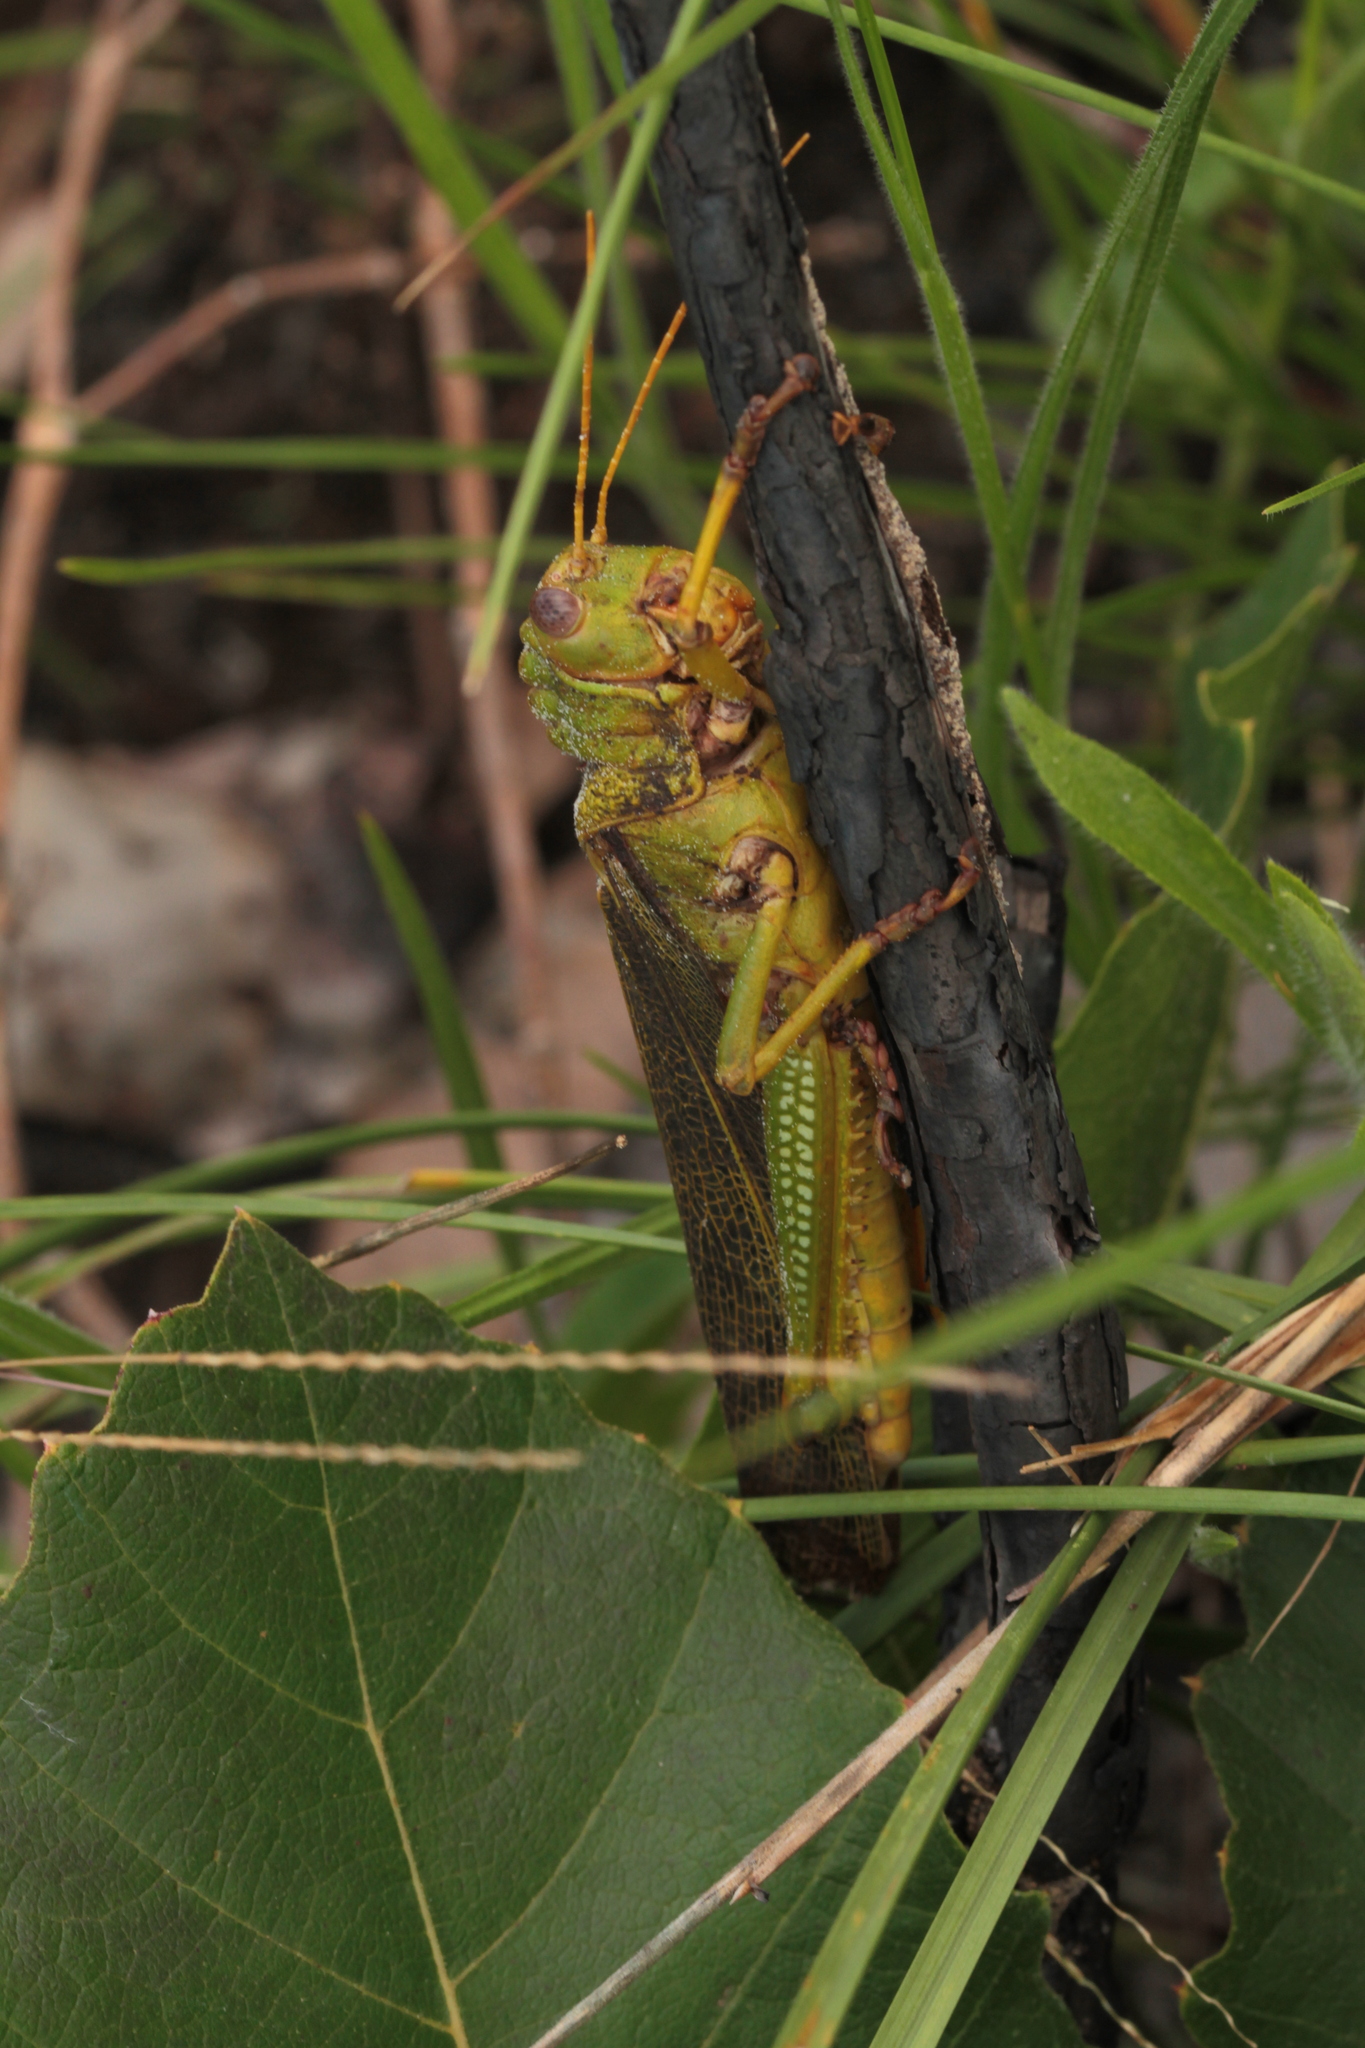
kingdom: Animalia
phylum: Arthropoda
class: Insecta
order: Orthoptera
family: Romaleidae
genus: Tropidacris
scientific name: Tropidacris collaris
